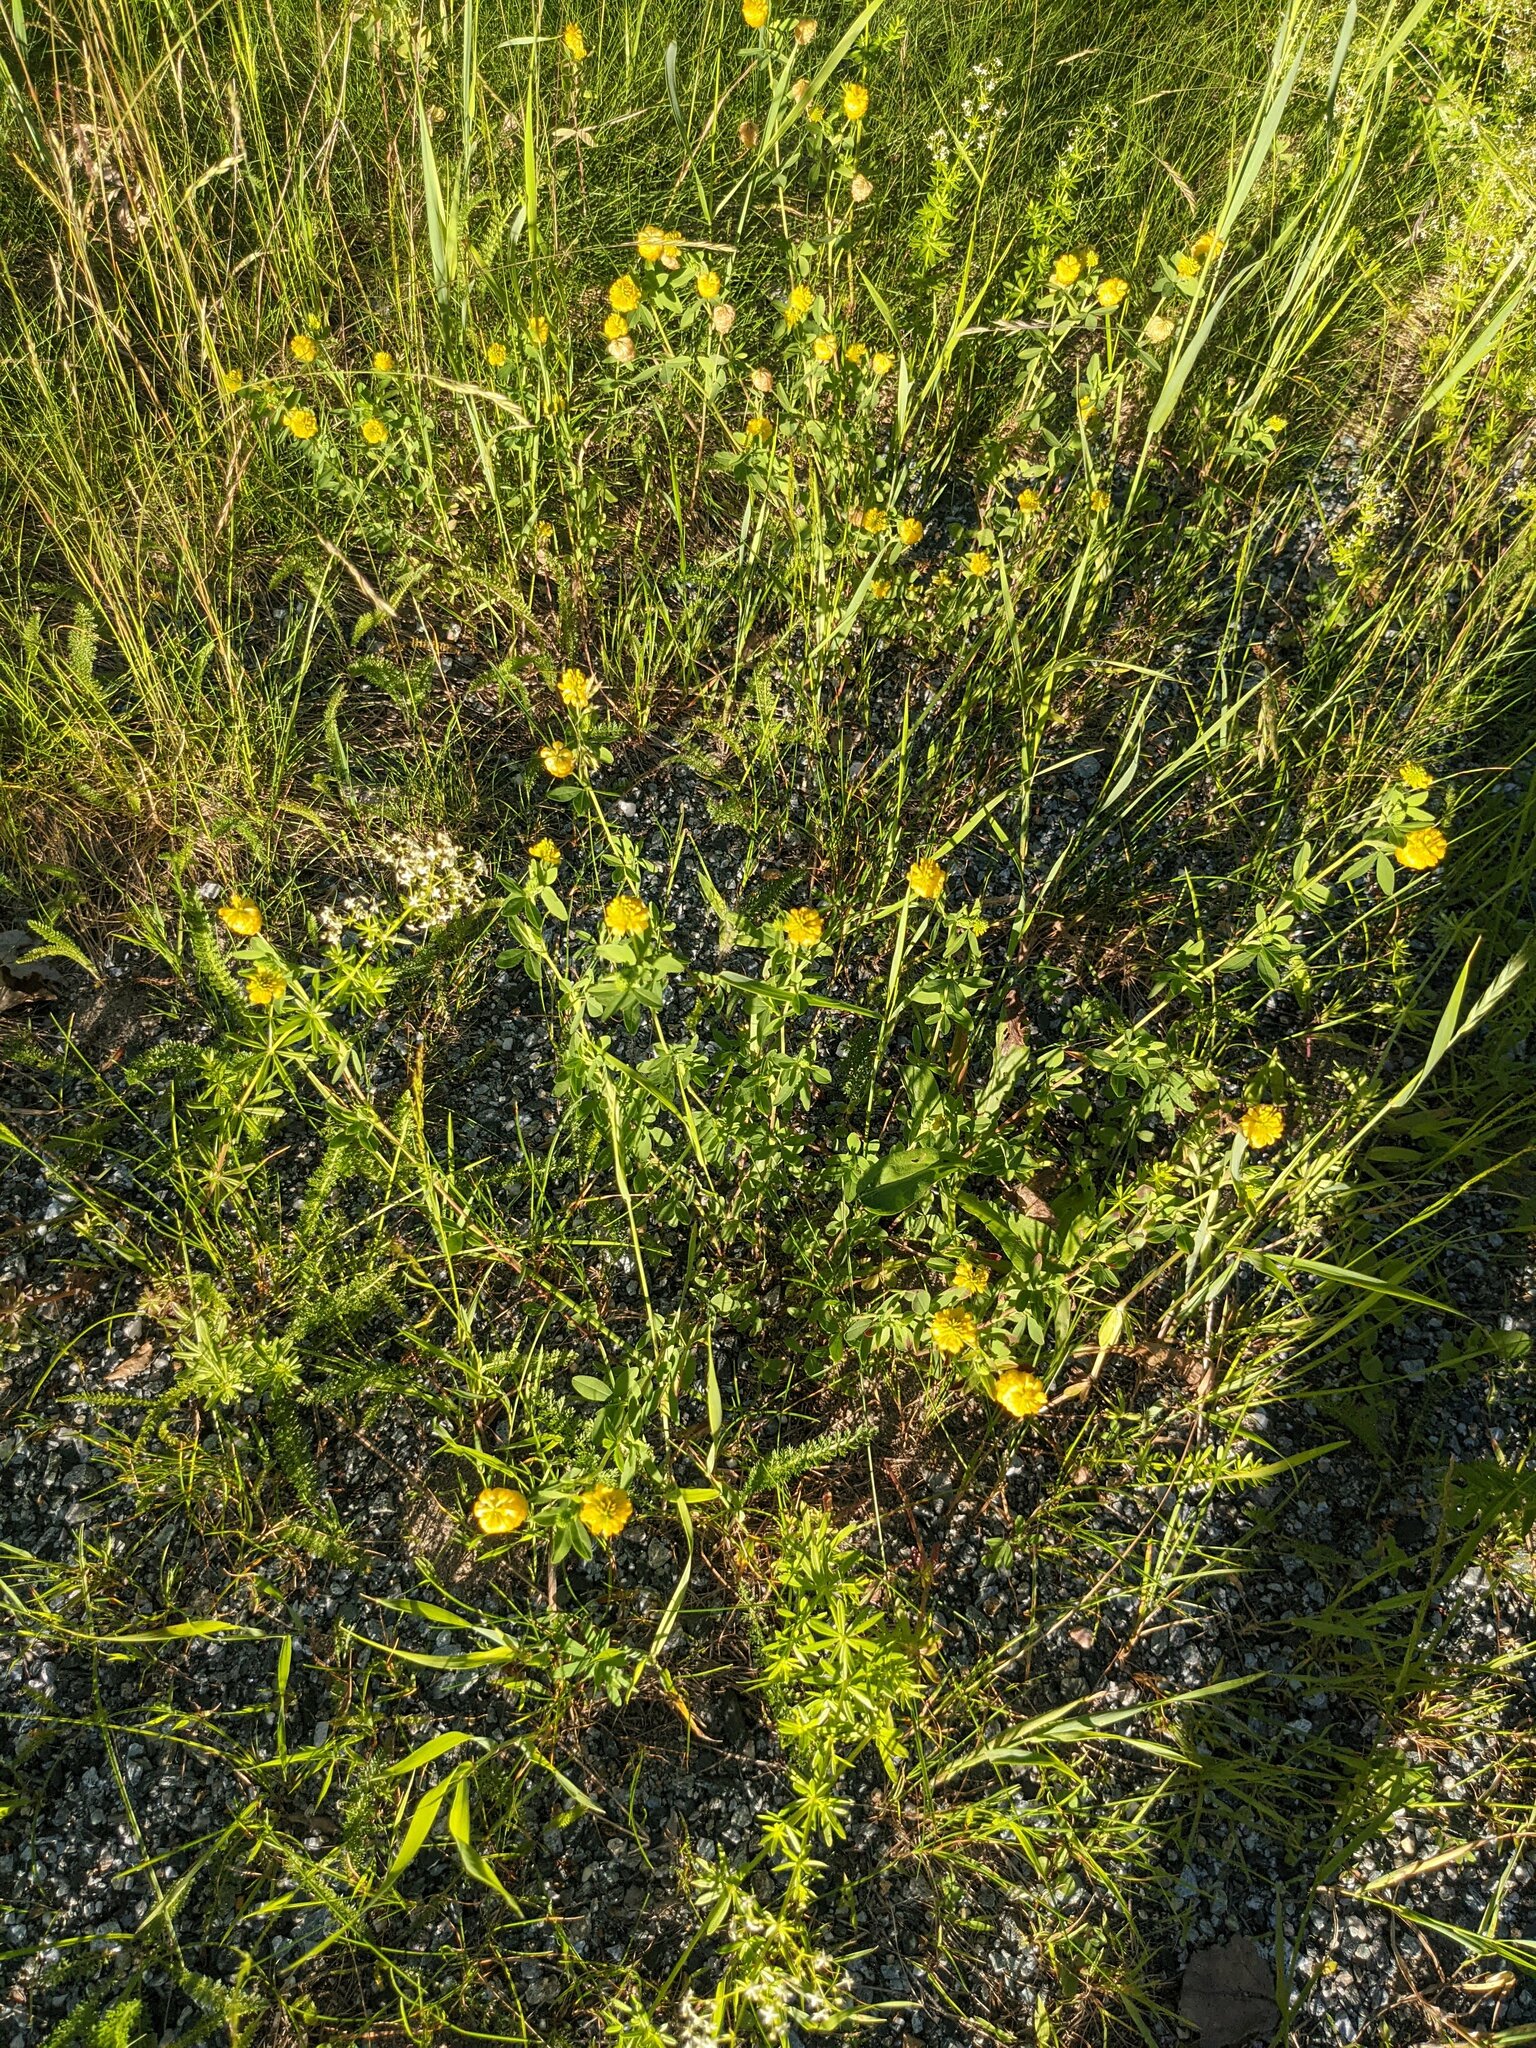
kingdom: Plantae
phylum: Tracheophyta
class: Magnoliopsida
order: Fabales
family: Fabaceae
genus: Trifolium
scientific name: Trifolium aureum
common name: Golden clover
